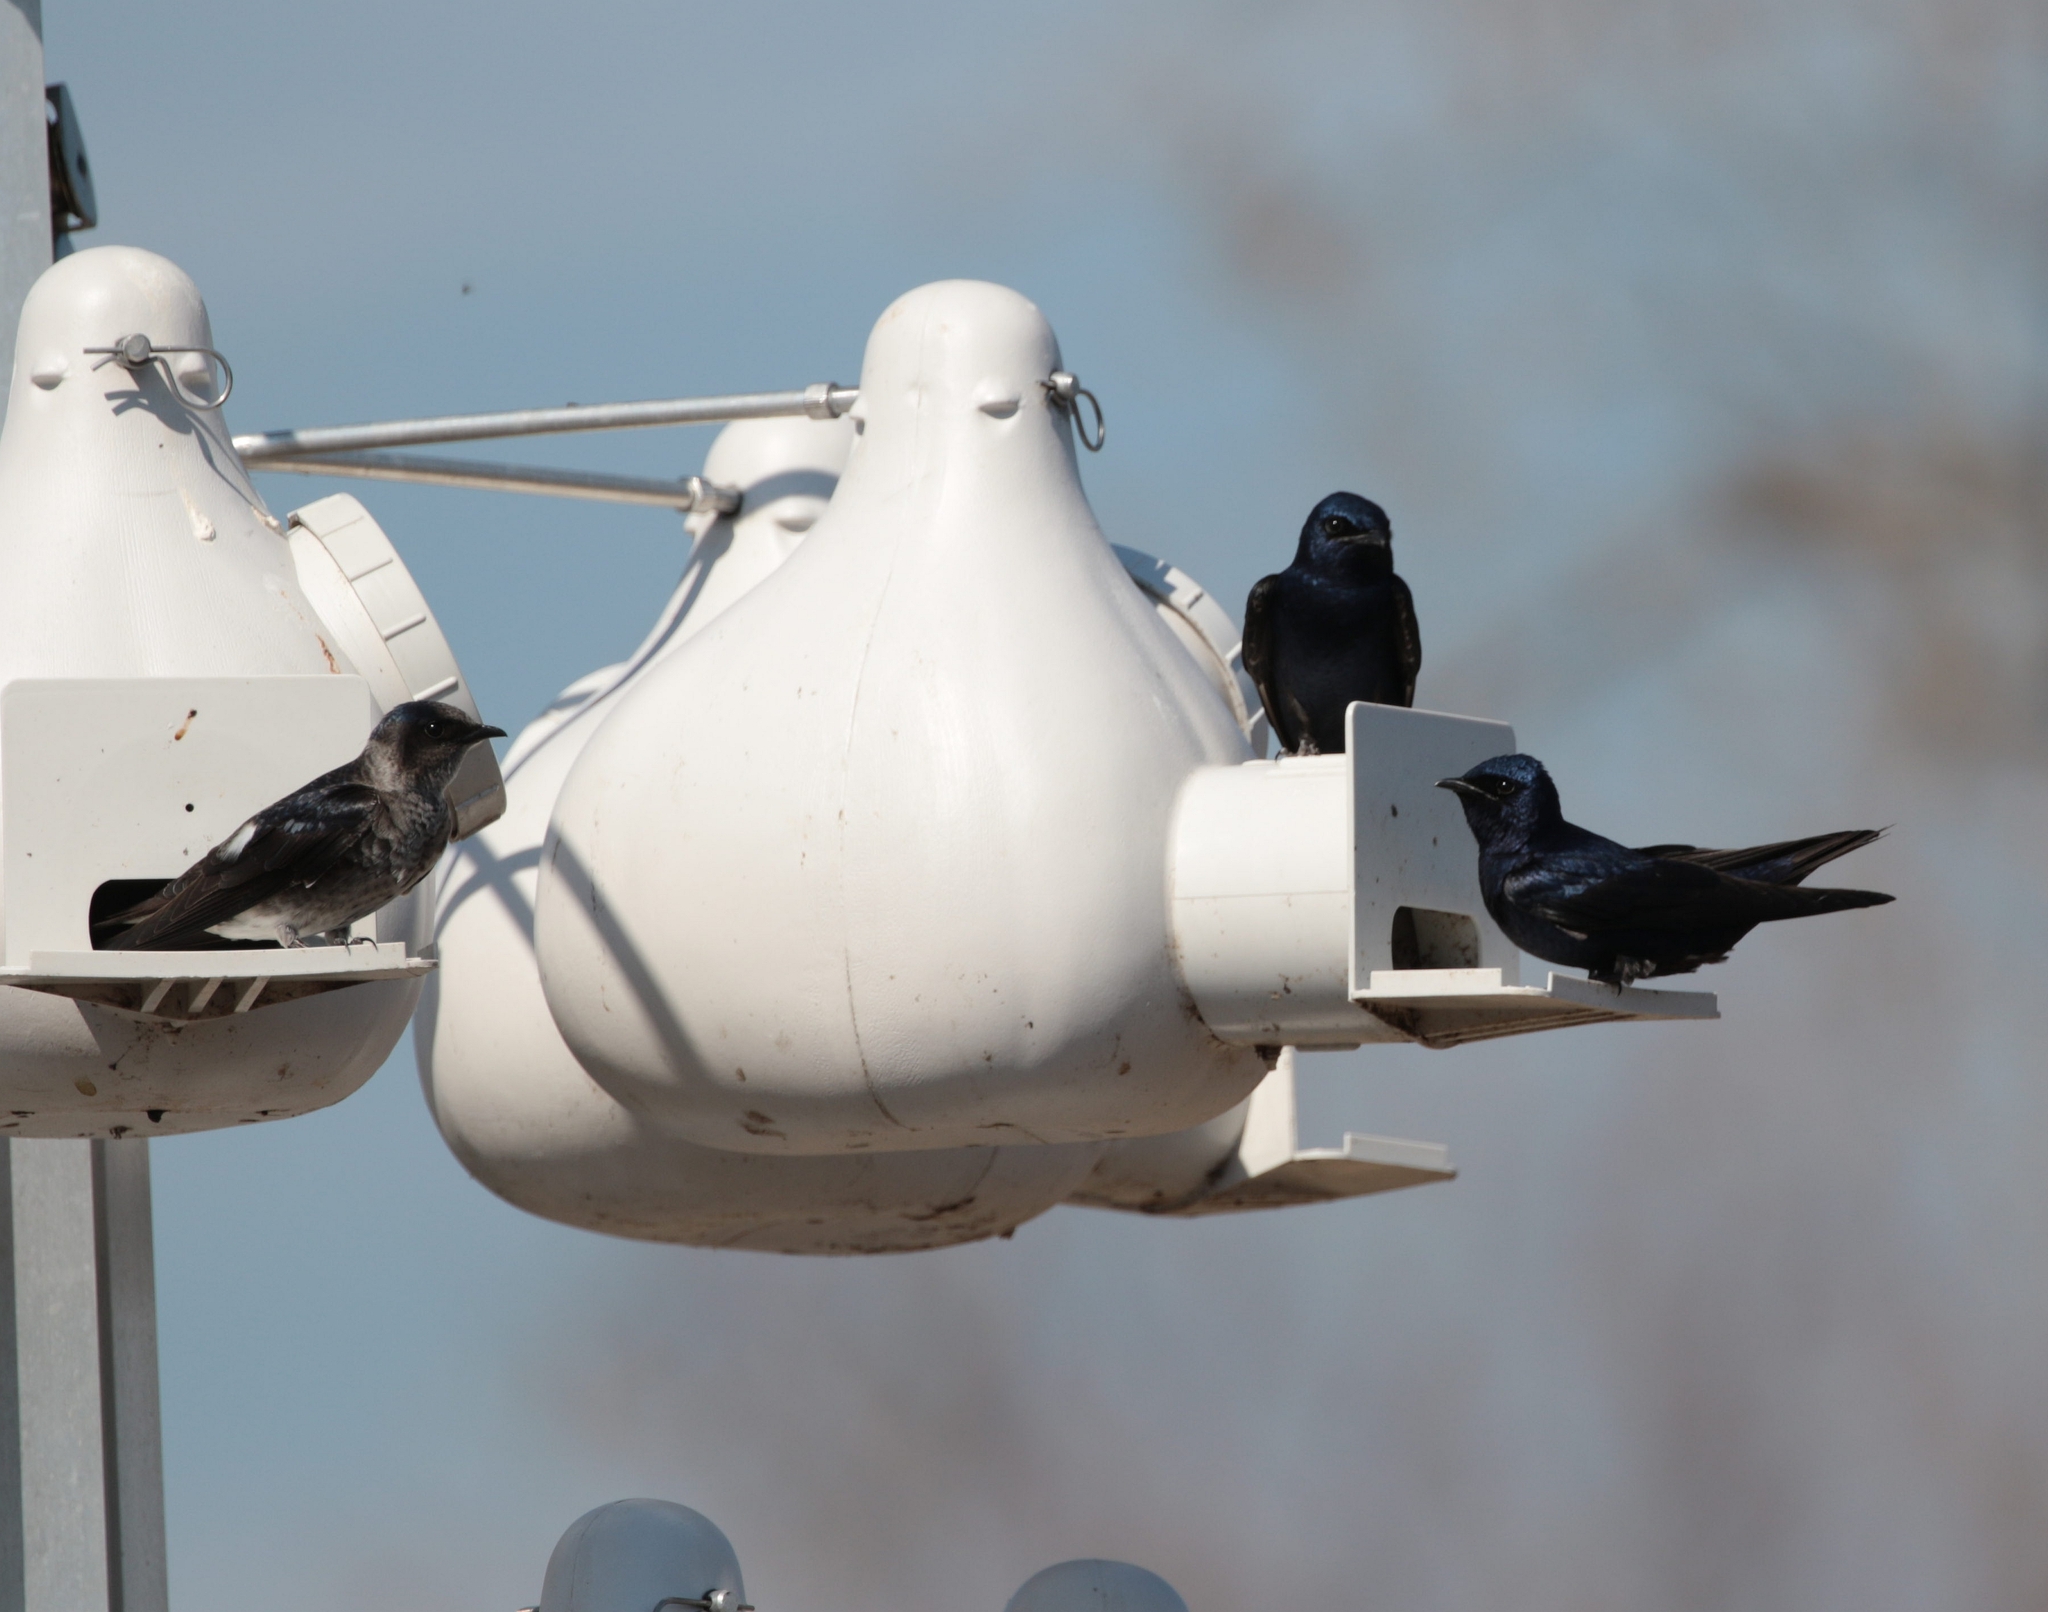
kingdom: Animalia
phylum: Chordata
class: Aves
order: Passeriformes
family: Hirundinidae
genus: Progne
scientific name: Progne subis
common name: Purple martin
